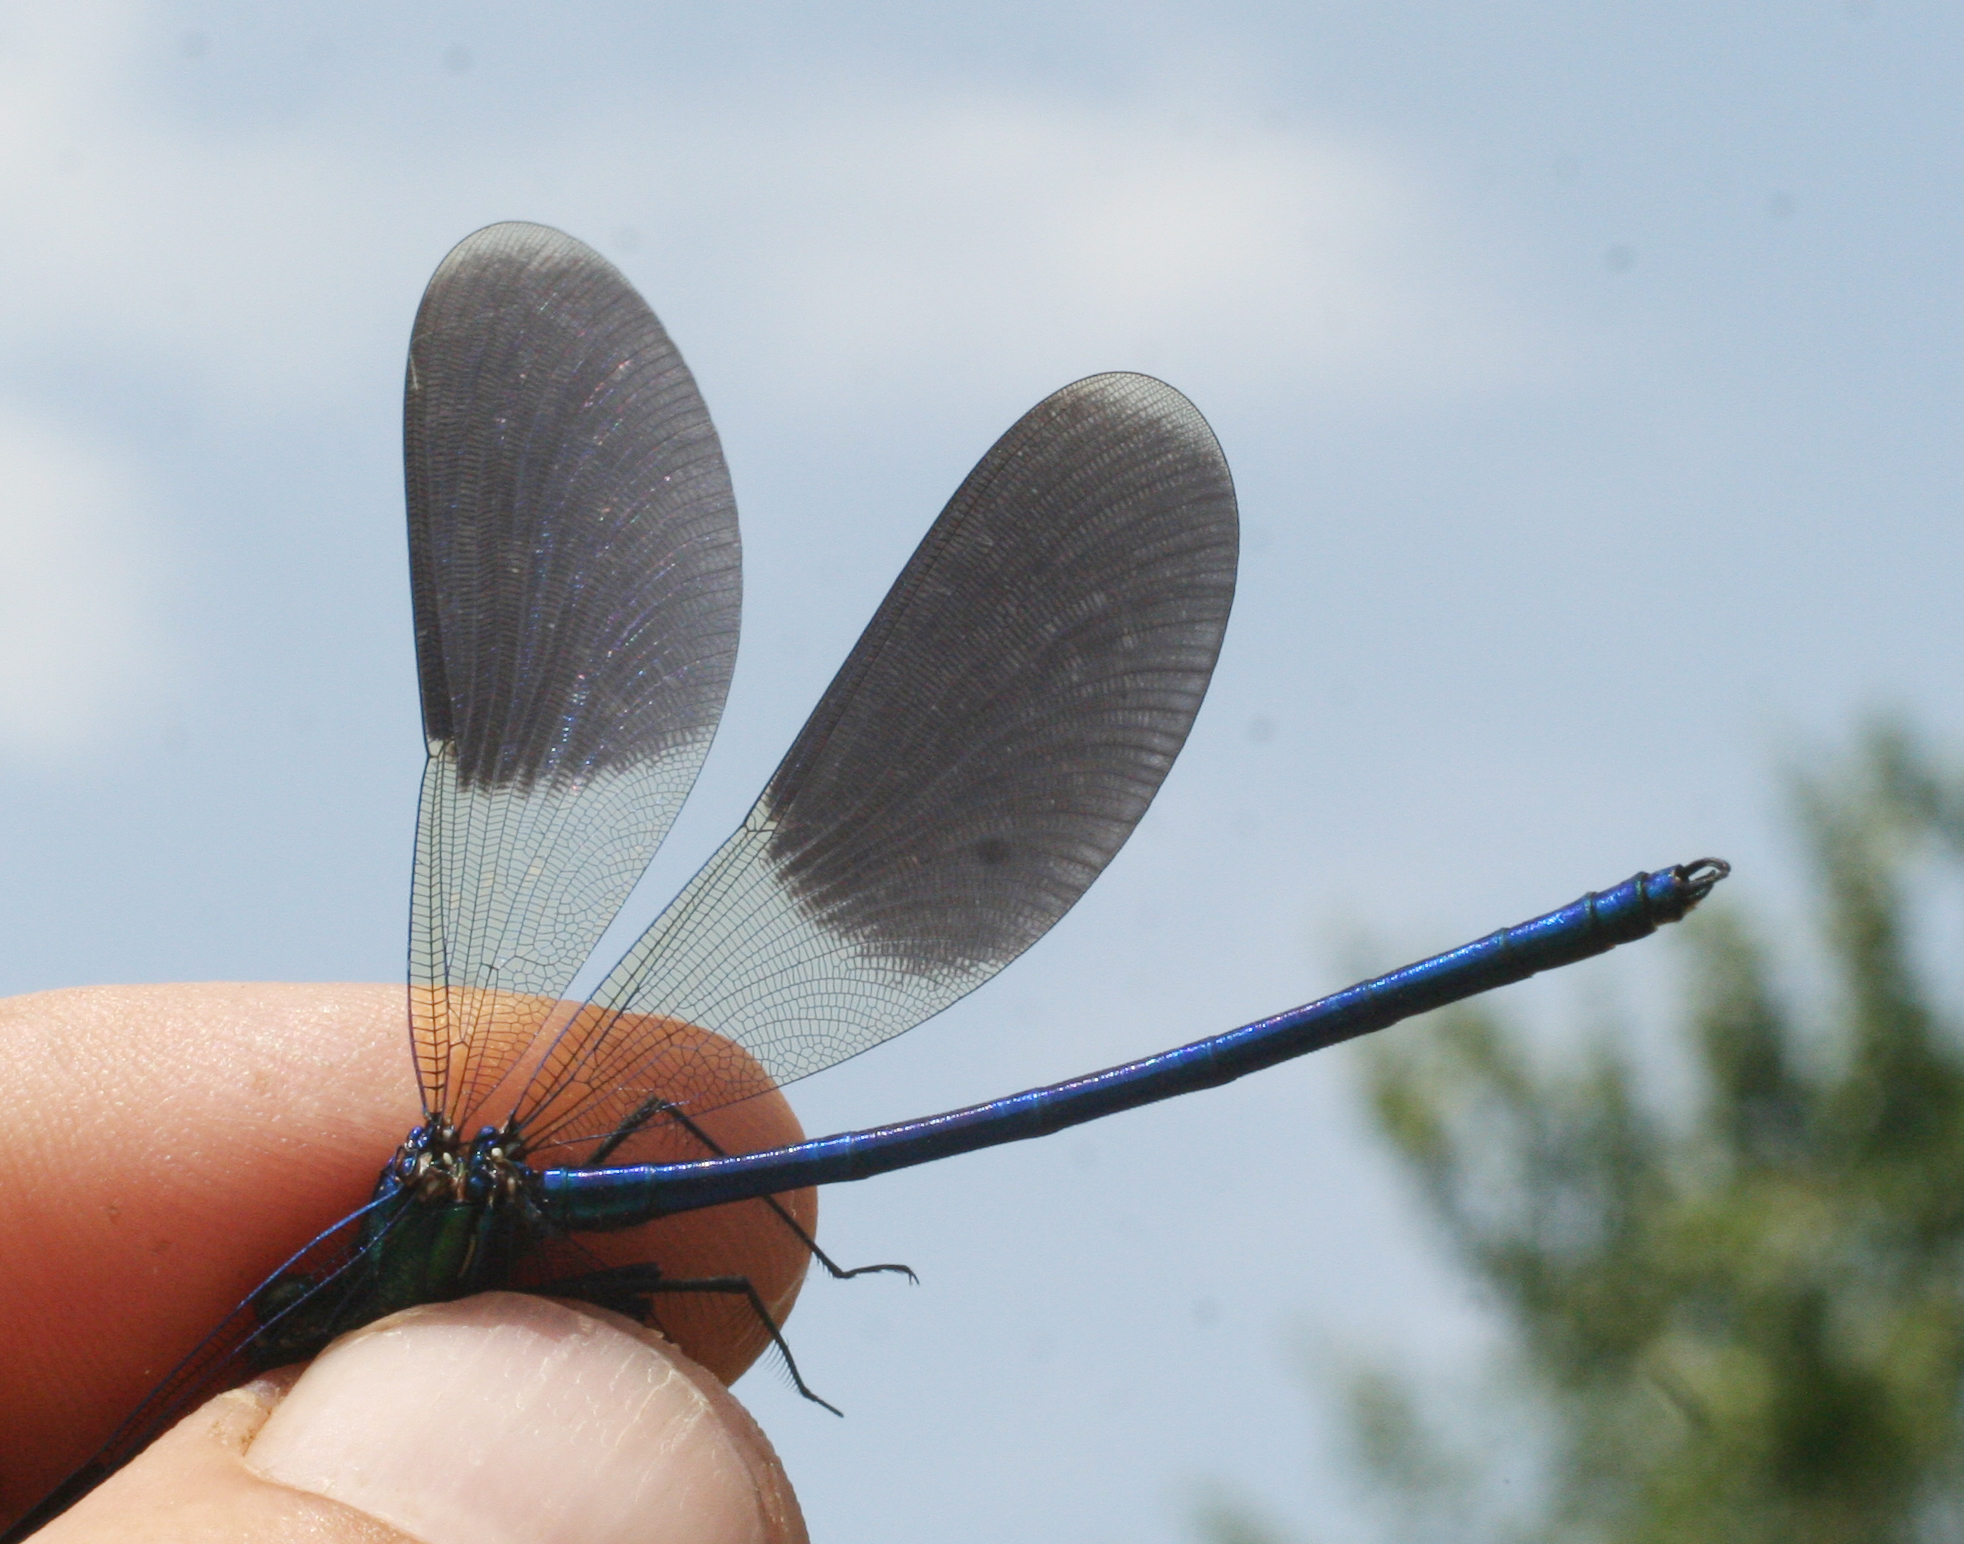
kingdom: Animalia
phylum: Arthropoda
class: Insecta
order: Odonata
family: Calopterygidae
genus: Calopteryx
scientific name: Calopteryx splendens
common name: Banded demoiselle
